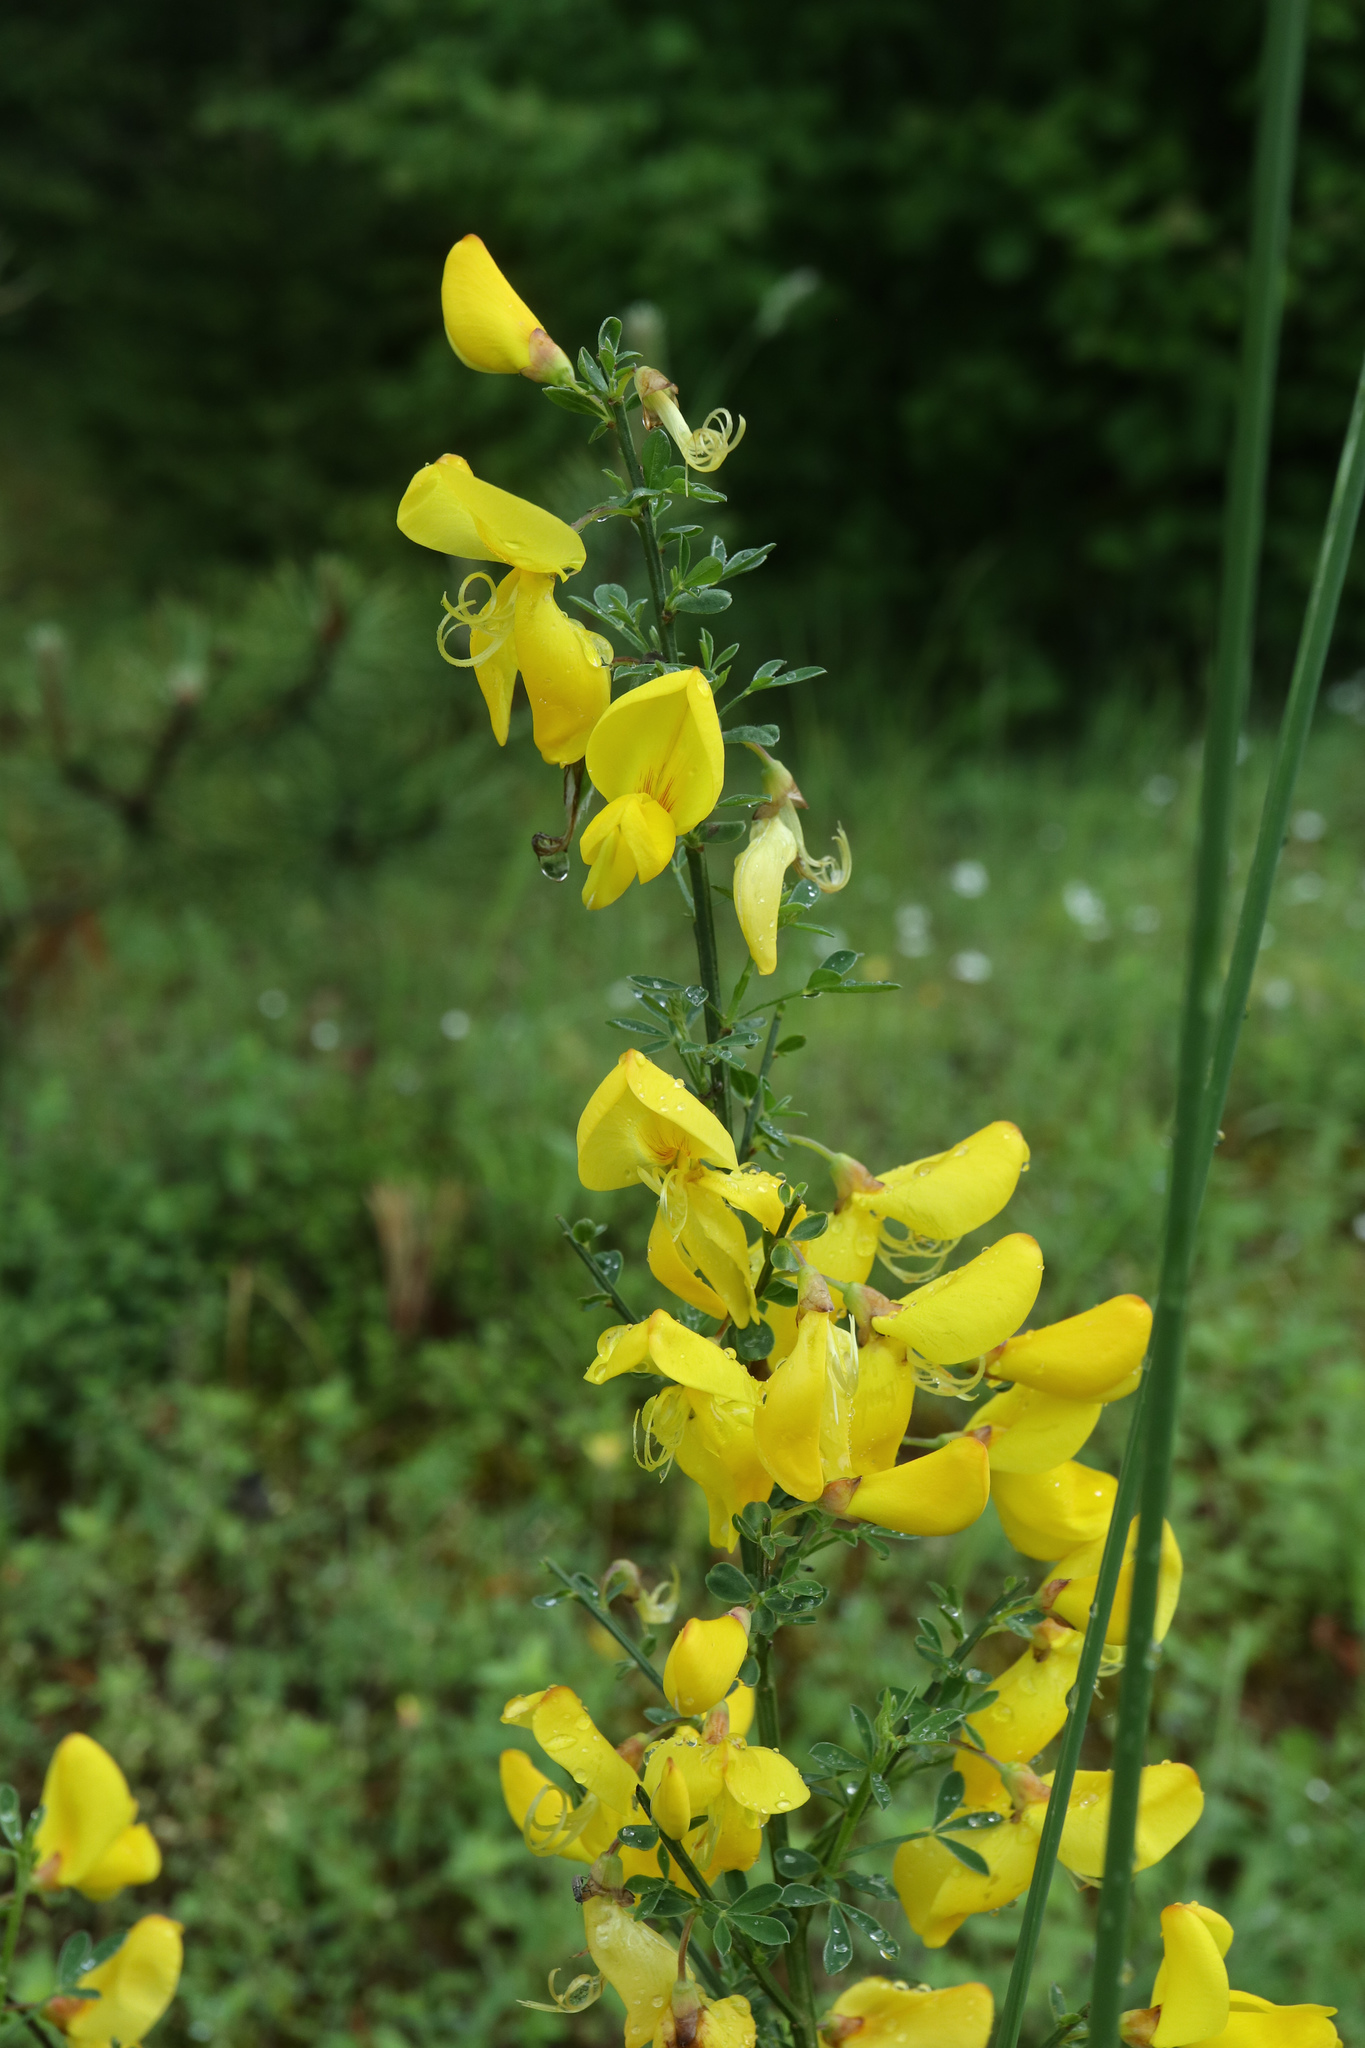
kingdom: Plantae
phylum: Tracheophyta
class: Magnoliopsida
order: Fabales
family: Fabaceae
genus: Cytisus
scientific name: Cytisus scoparius
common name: Scotch broom
